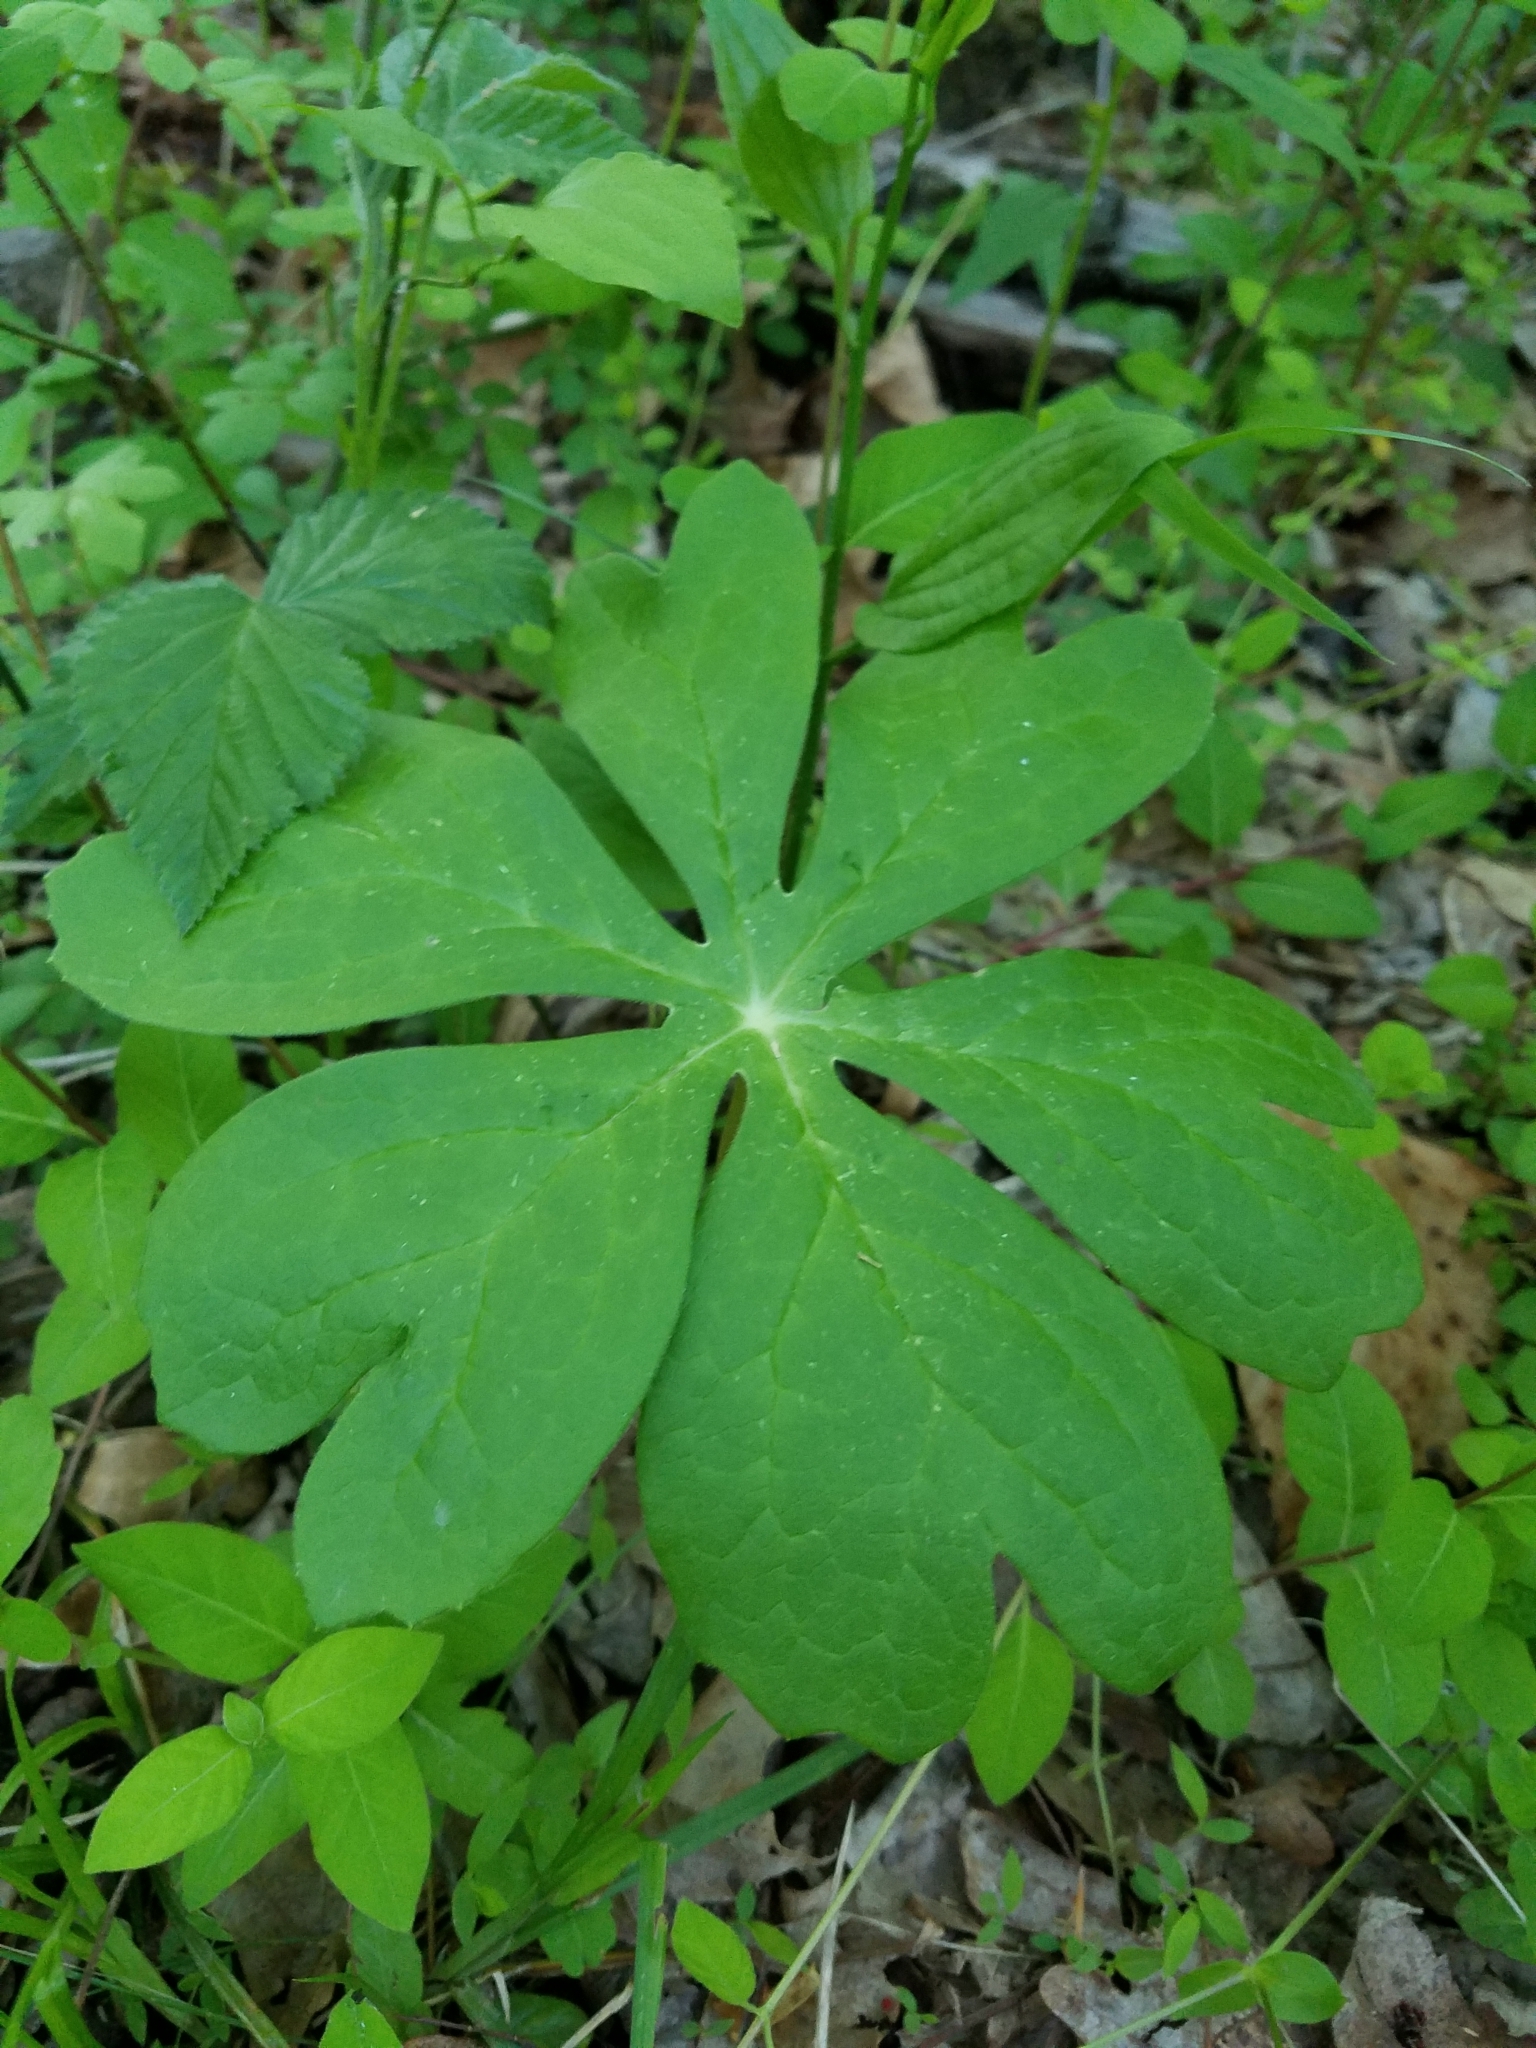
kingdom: Plantae
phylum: Tracheophyta
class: Magnoliopsida
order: Ranunculales
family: Berberidaceae
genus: Podophyllum
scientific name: Podophyllum peltatum
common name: Wild mandrake
